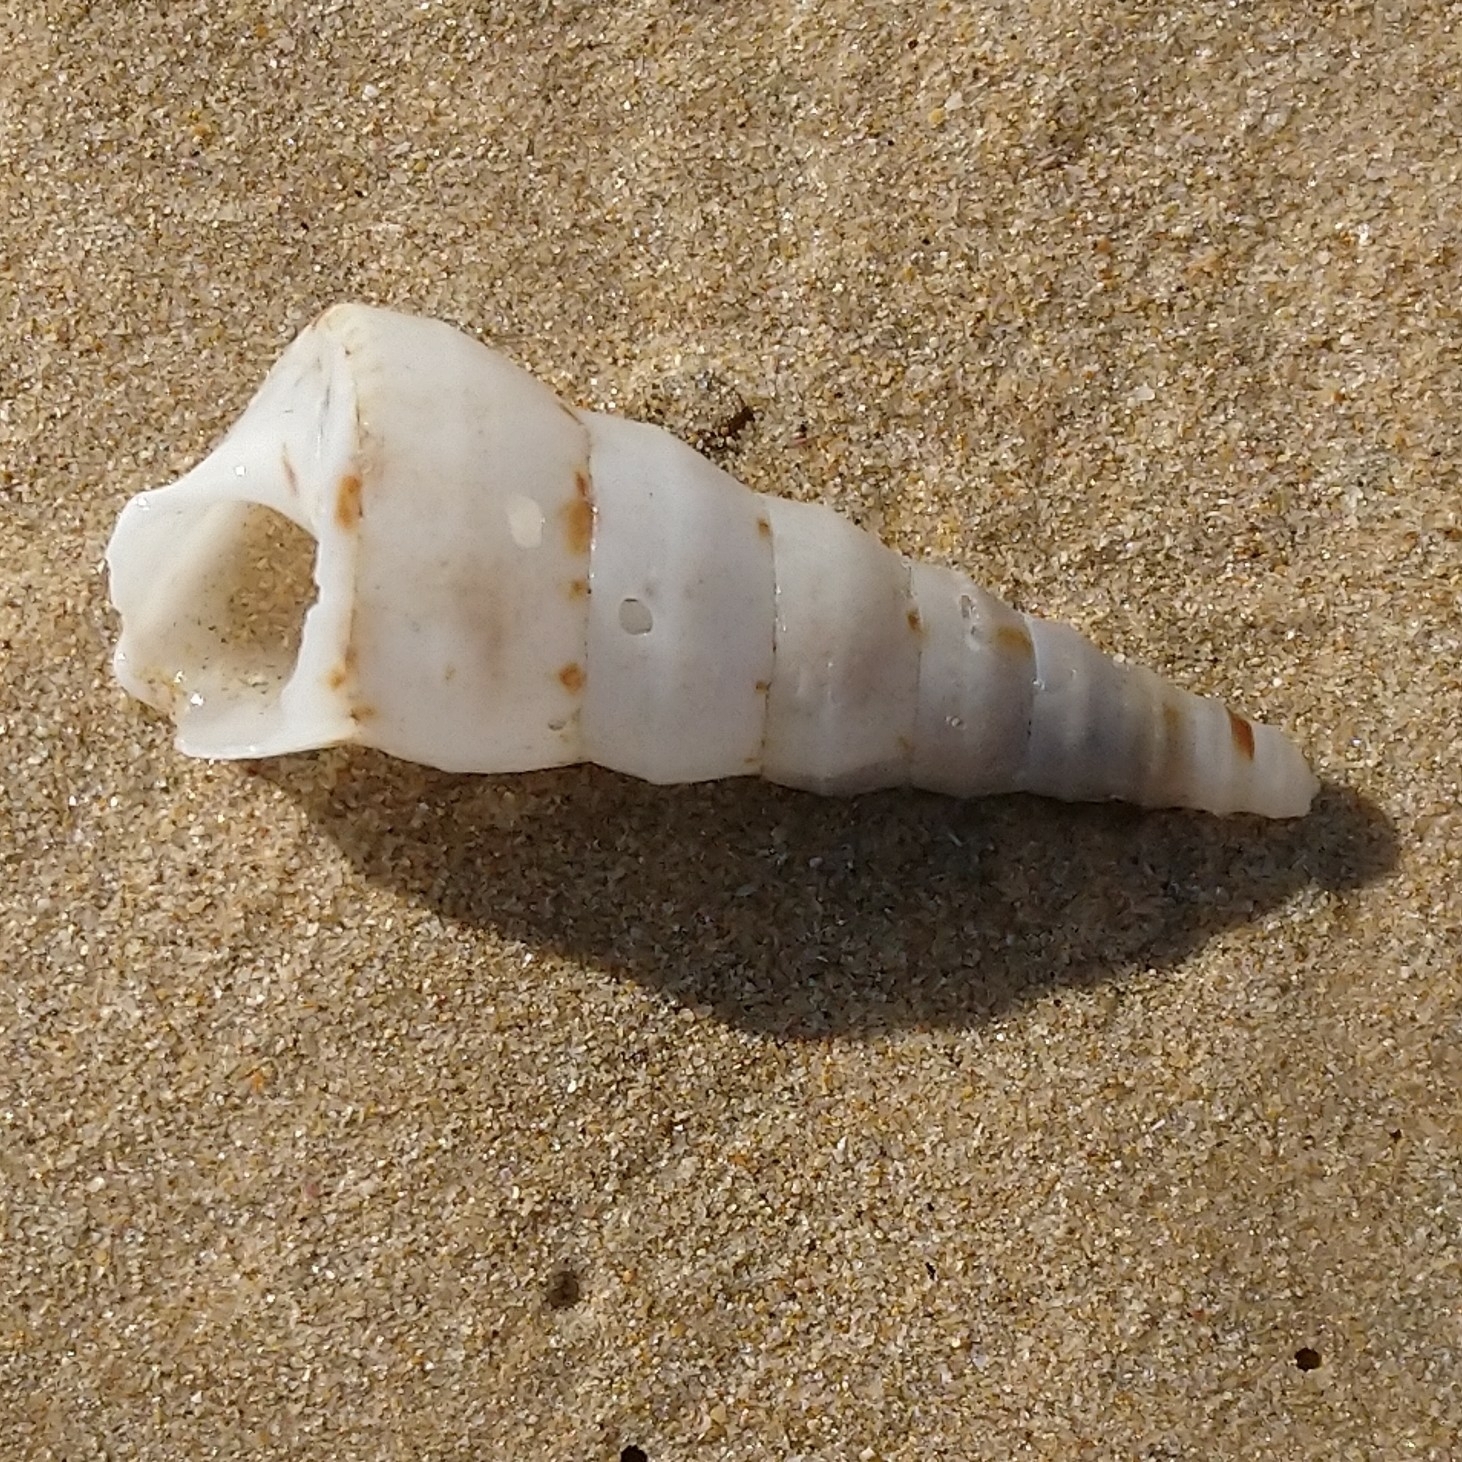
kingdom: Animalia
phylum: Mollusca
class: Gastropoda
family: Turritellidae
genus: Turritella
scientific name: Turritella carinifera
